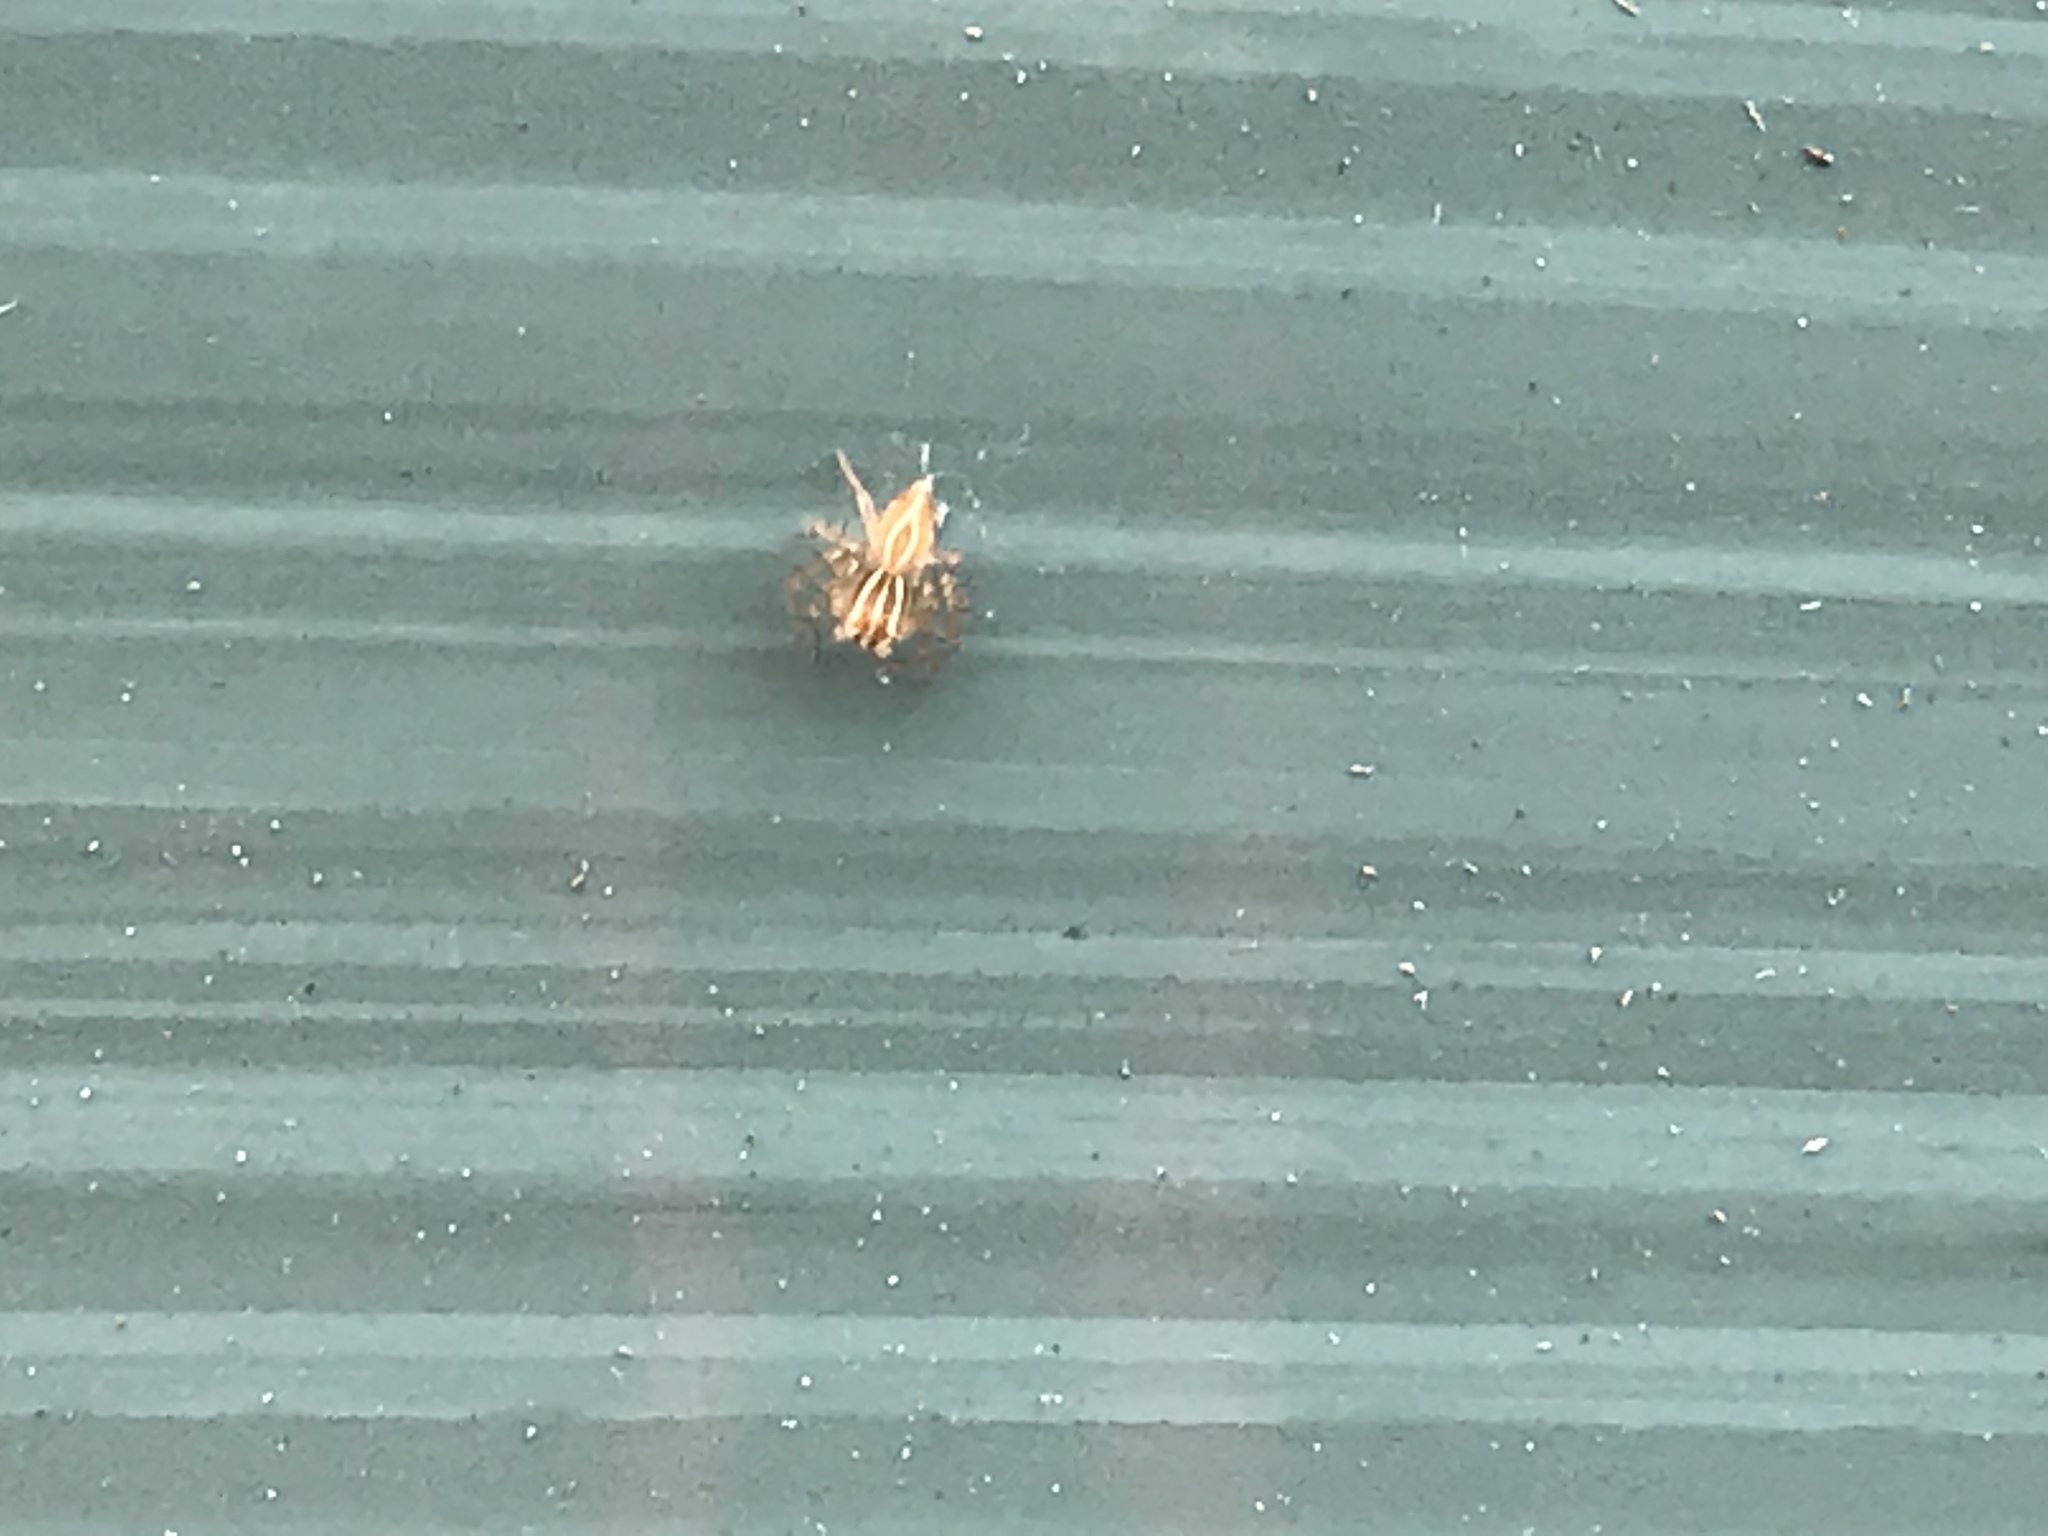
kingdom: Animalia
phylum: Arthropoda
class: Arachnida
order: Araneae
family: Oxyopidae
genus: Oxyopes
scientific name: Oxyopes salticus
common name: Lynx spiders
